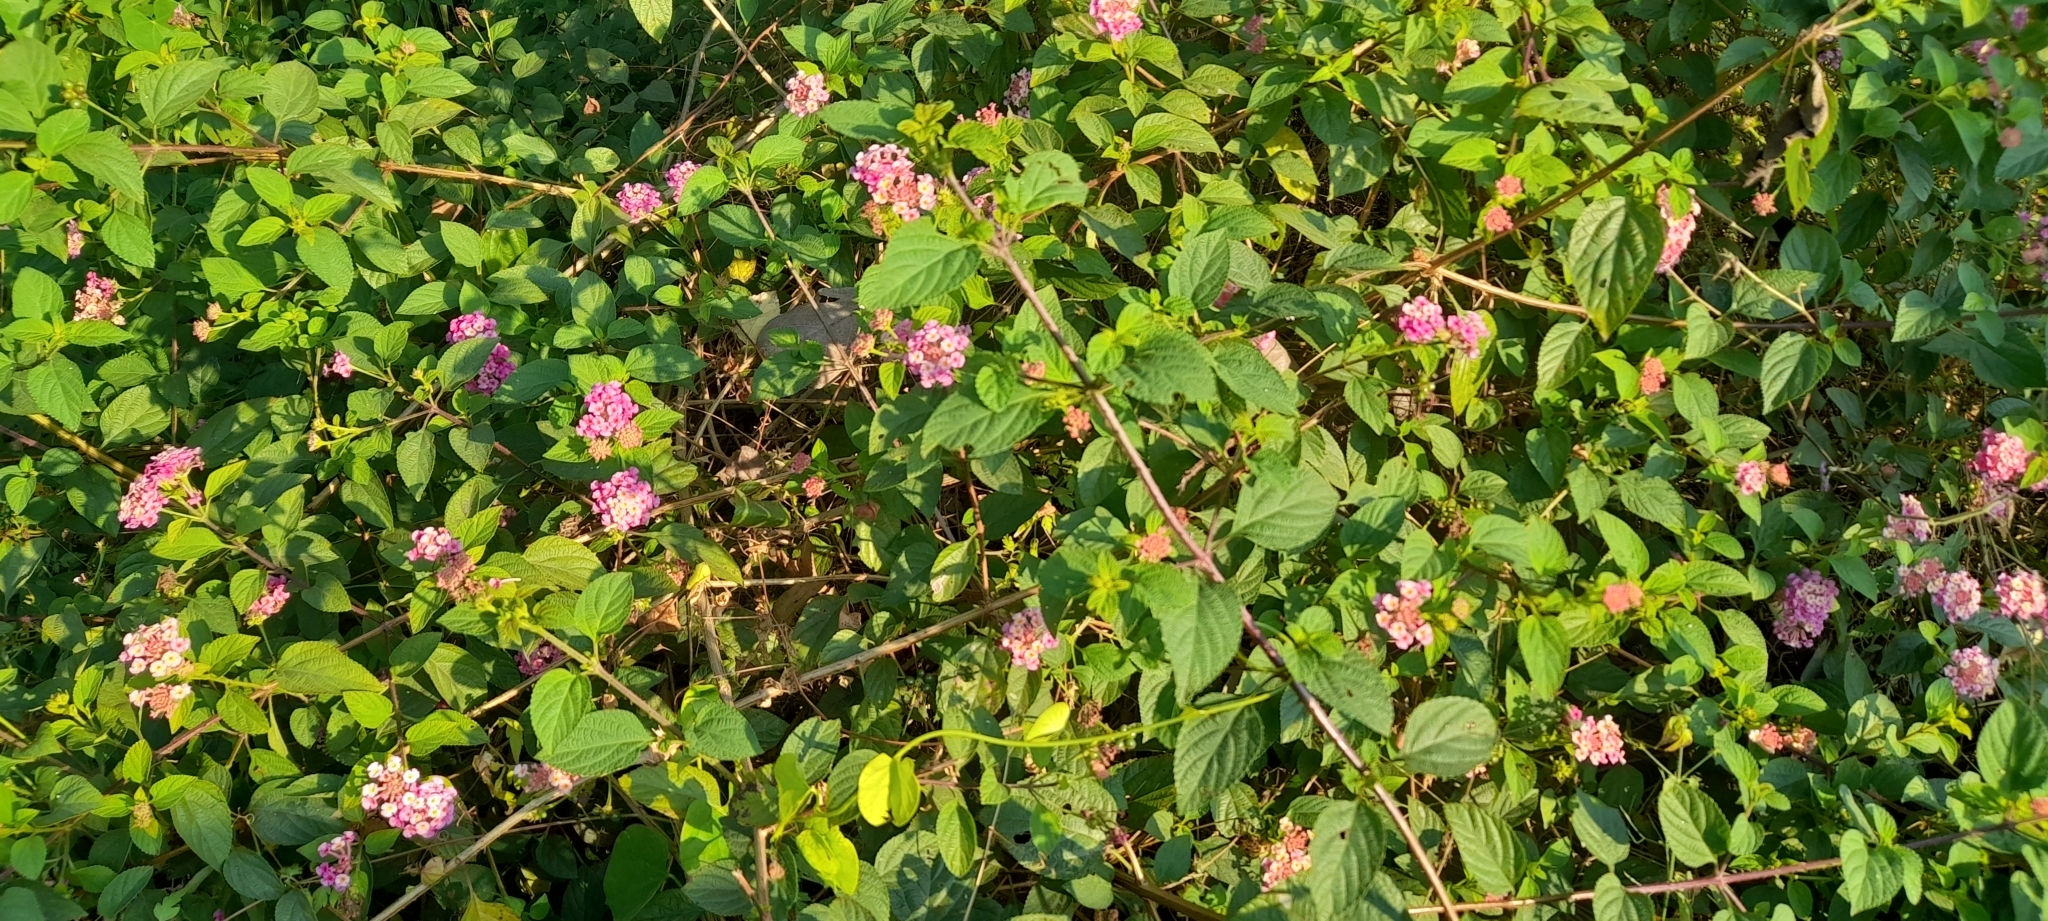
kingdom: Plantae
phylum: Tracheophyta
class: Magnoliopsida
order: Lamiales
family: Verbenaceae
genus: Lantana
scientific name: Lantana camara
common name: Lantana
